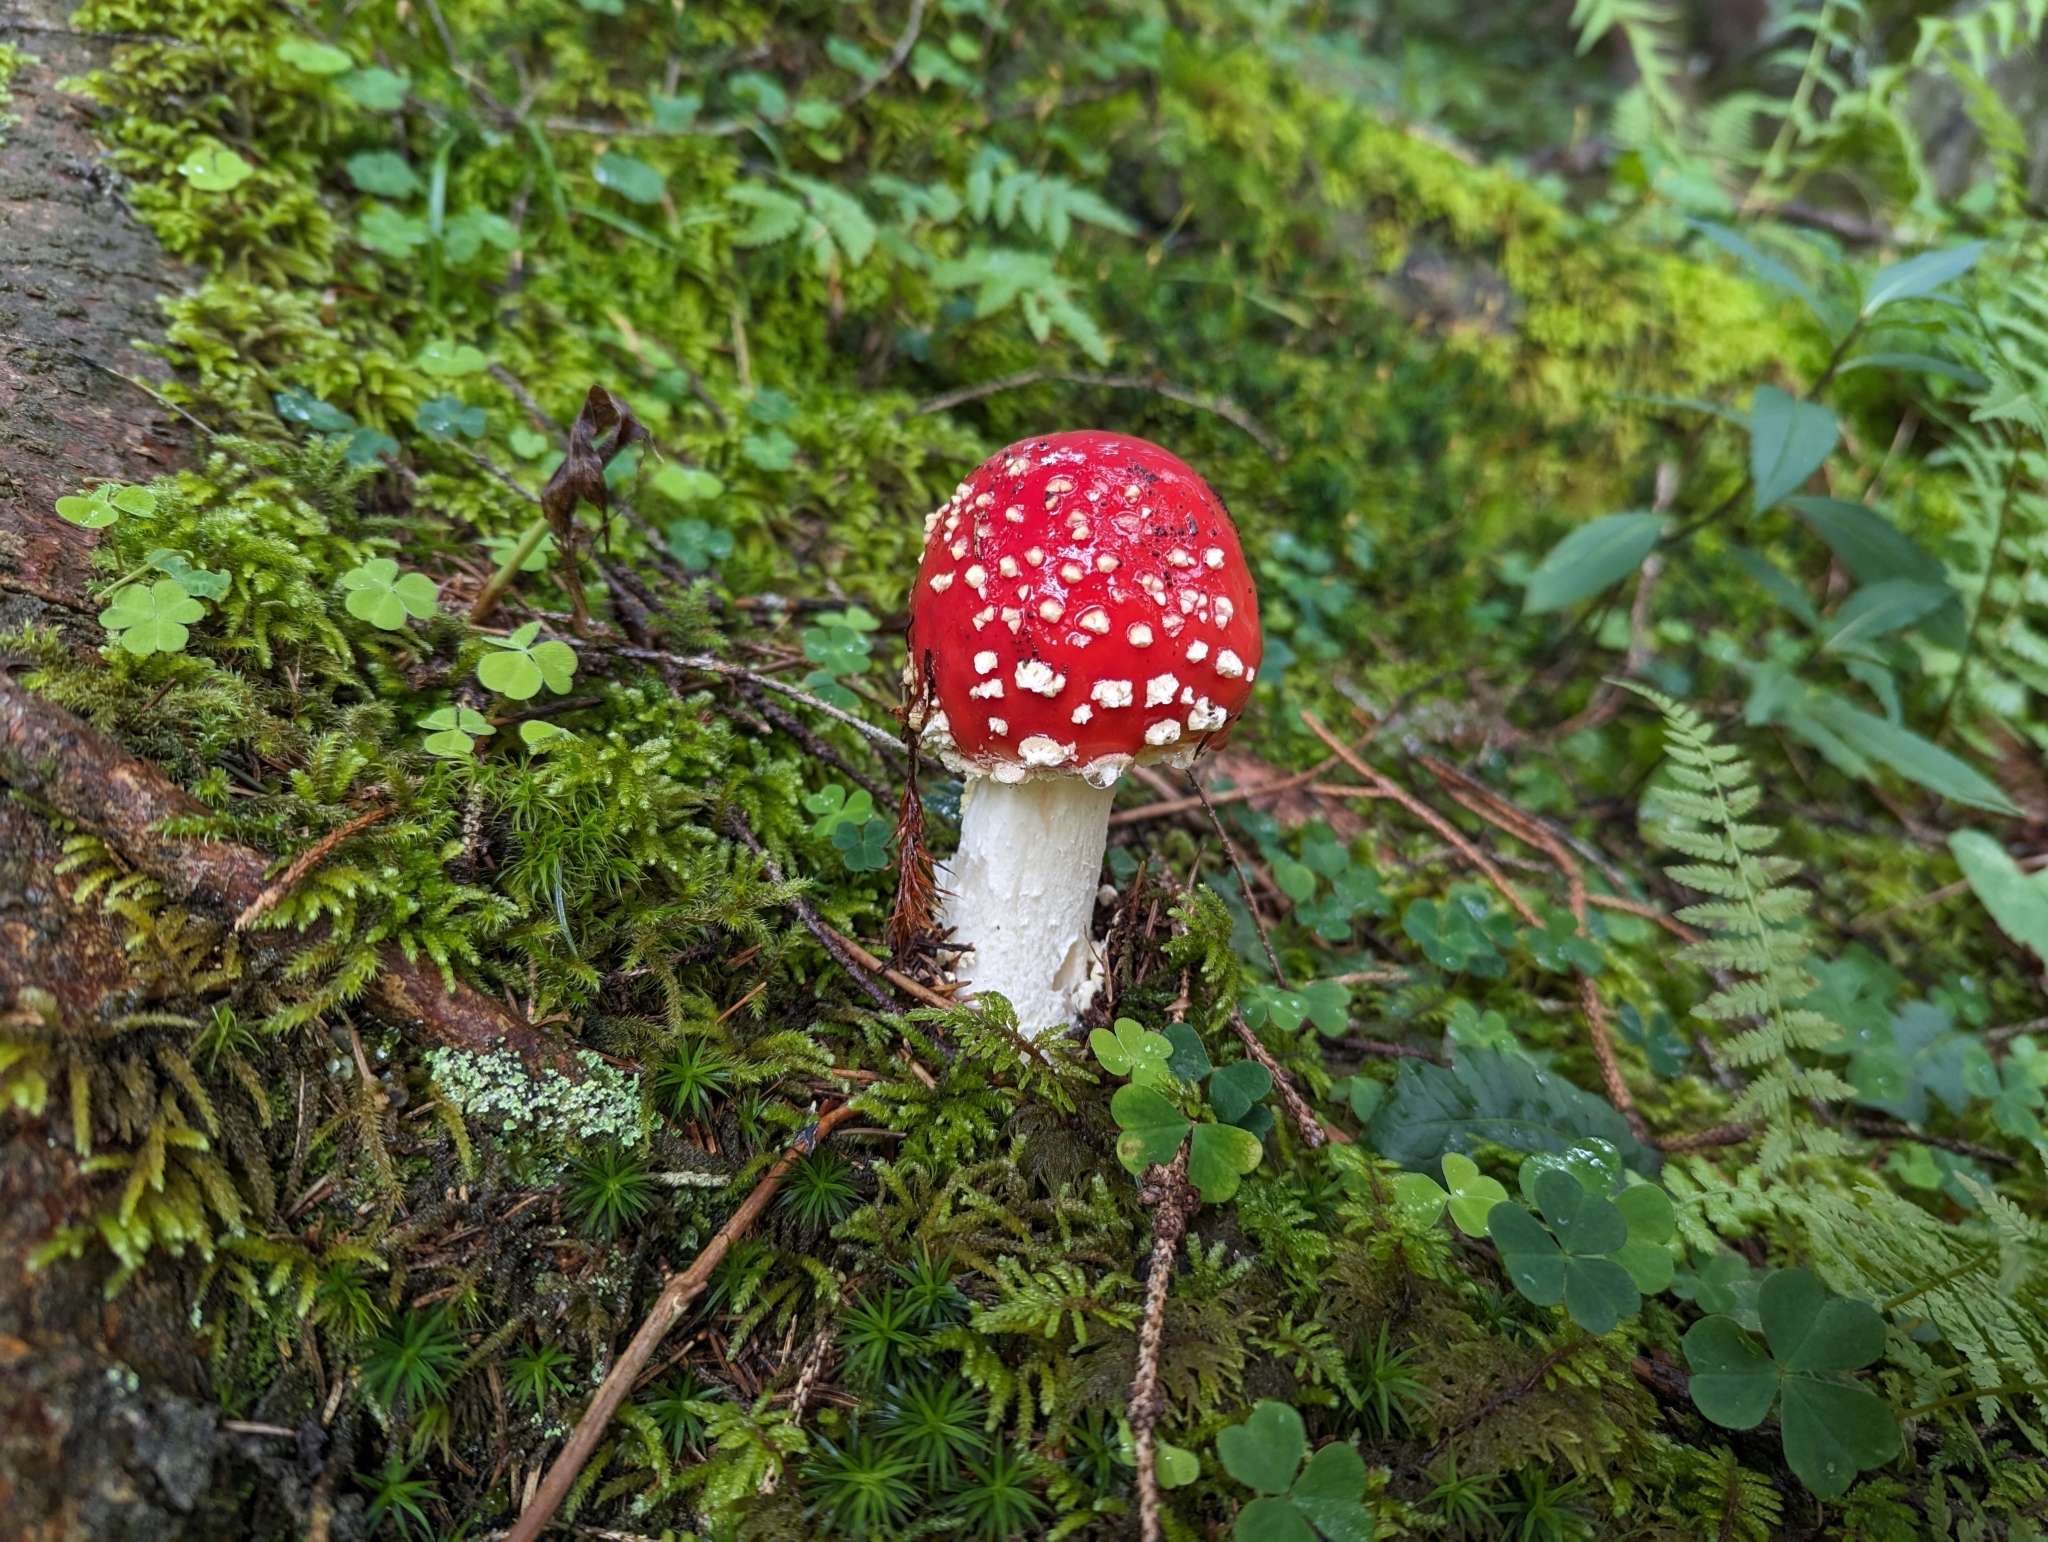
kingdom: Fungi
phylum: Basidiomycota
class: Agaricomycetes
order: Agaricales
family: Amanitaceae
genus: Amanita
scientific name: Amanita muscaria
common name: Fly agaric
